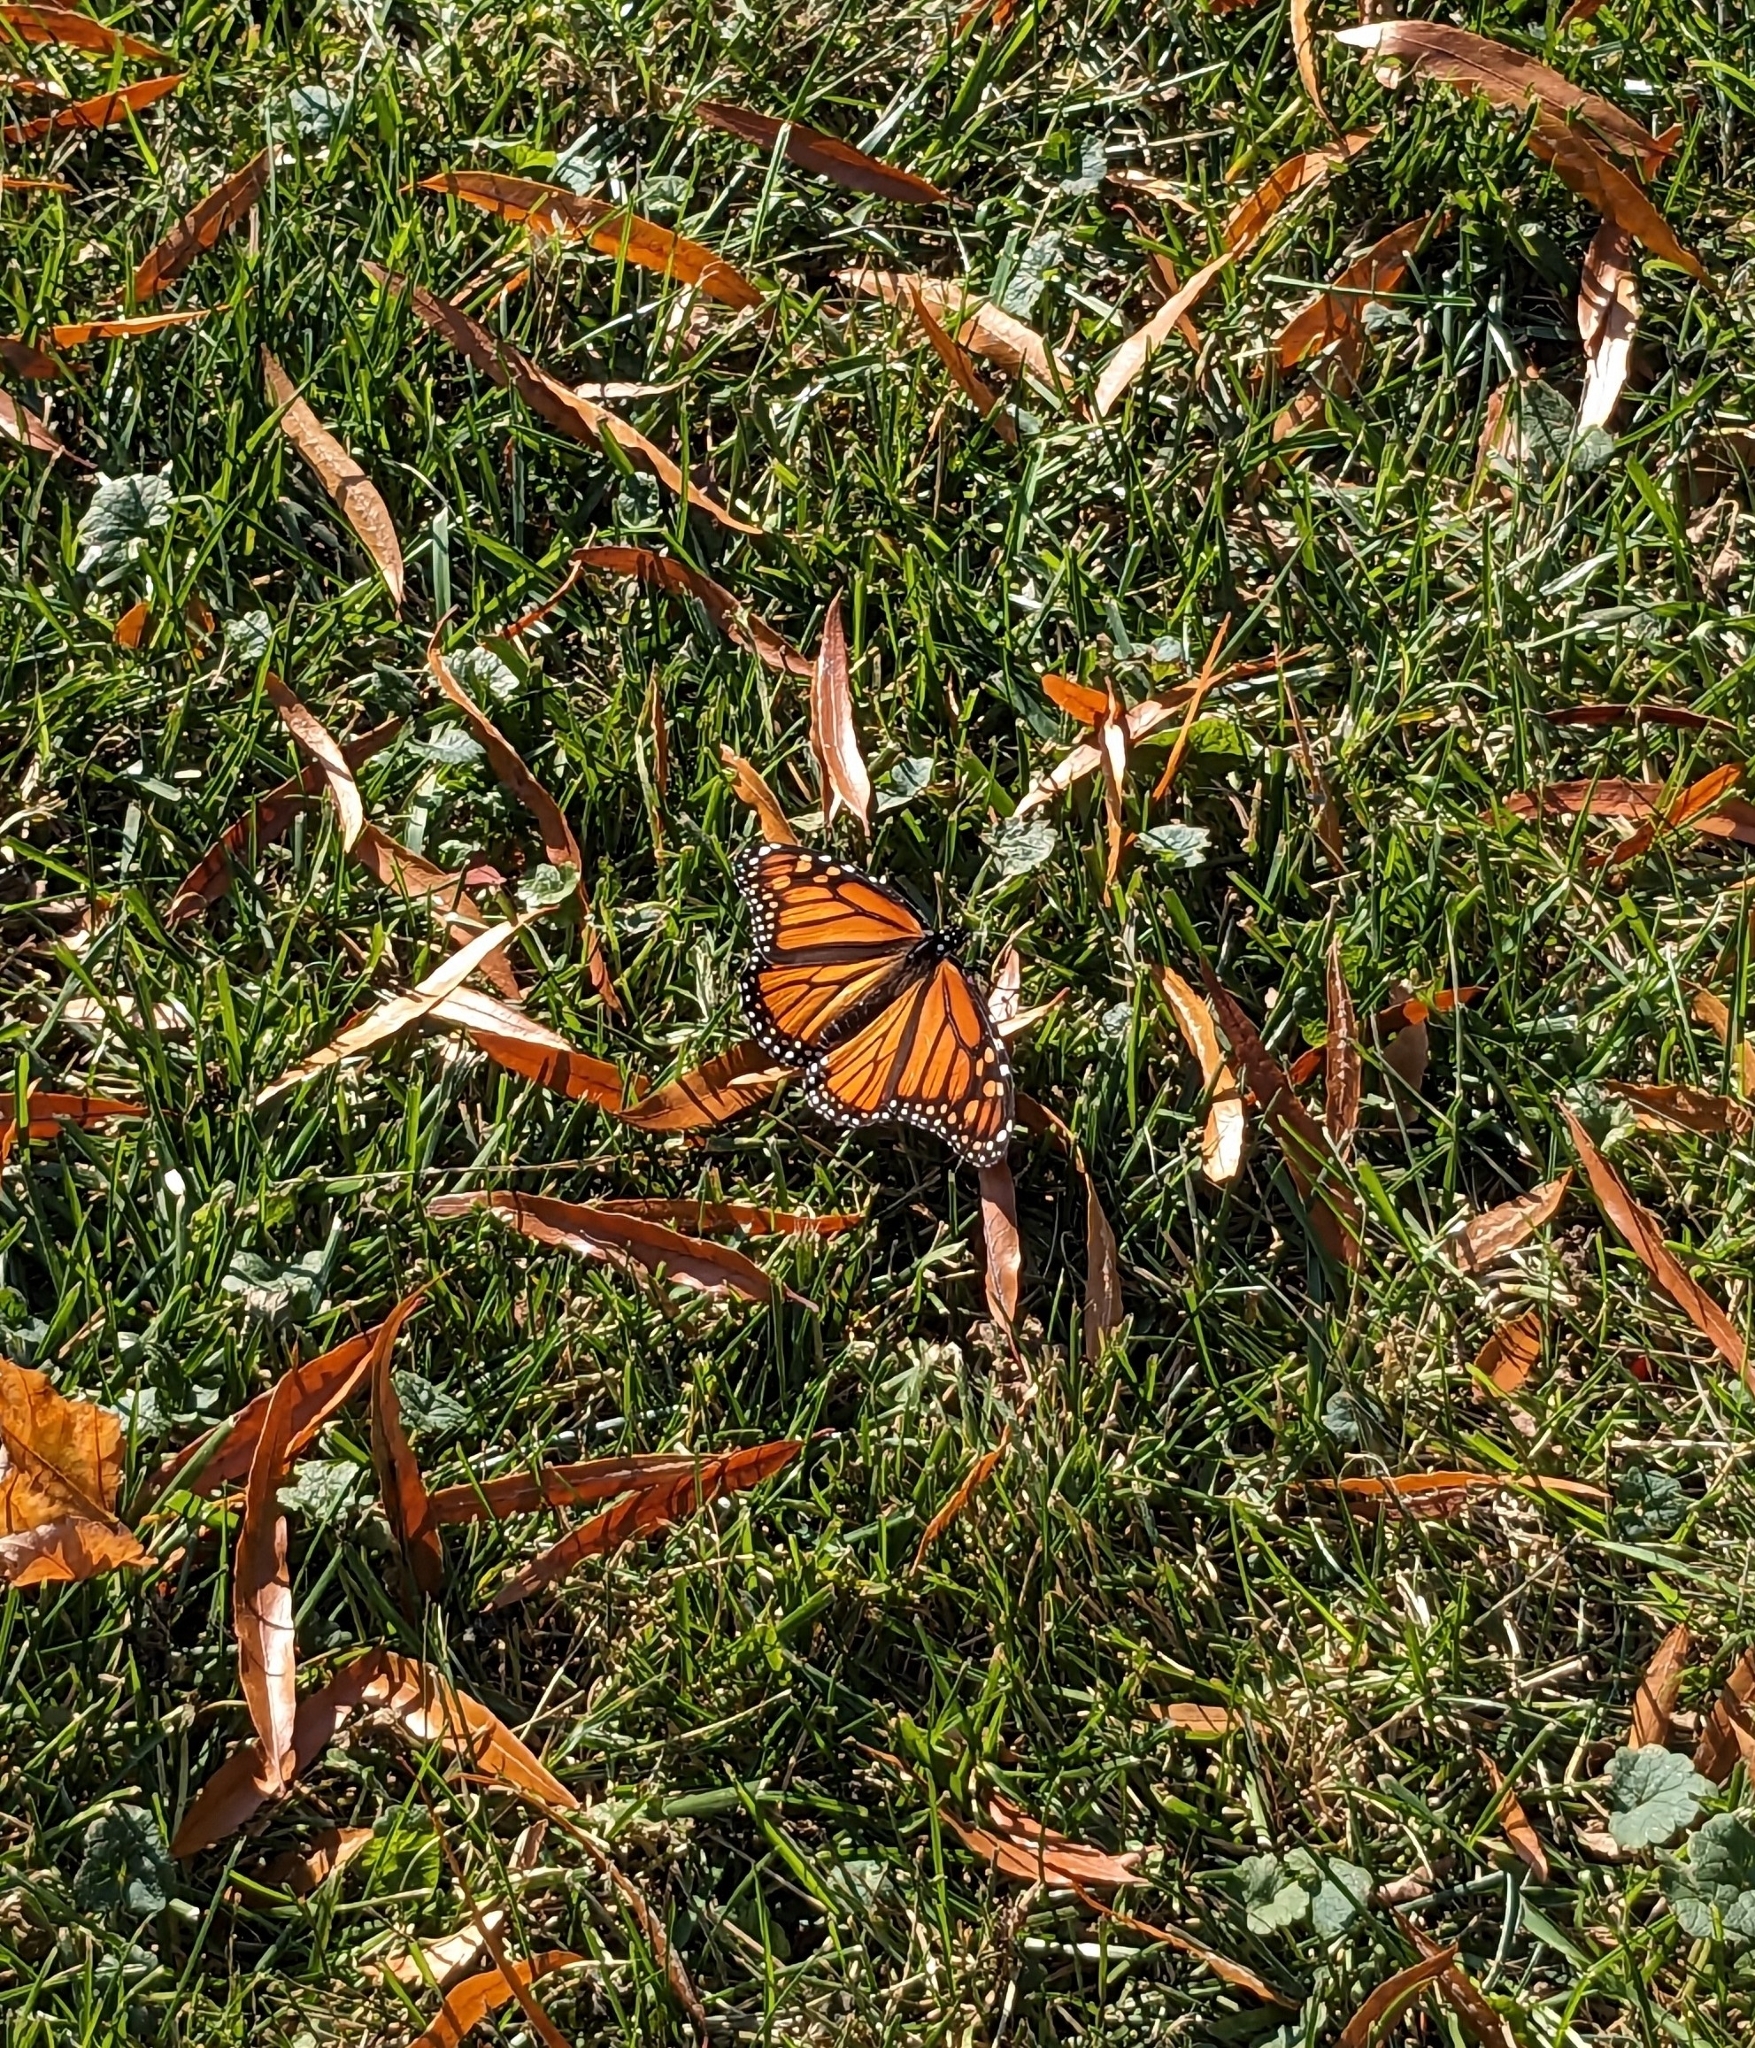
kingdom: Animalia
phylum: Arthropoda
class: Insecta
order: Lepidoptera
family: Nymphalidae
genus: Danaus
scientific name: Danaus plexippus
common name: Monarch
